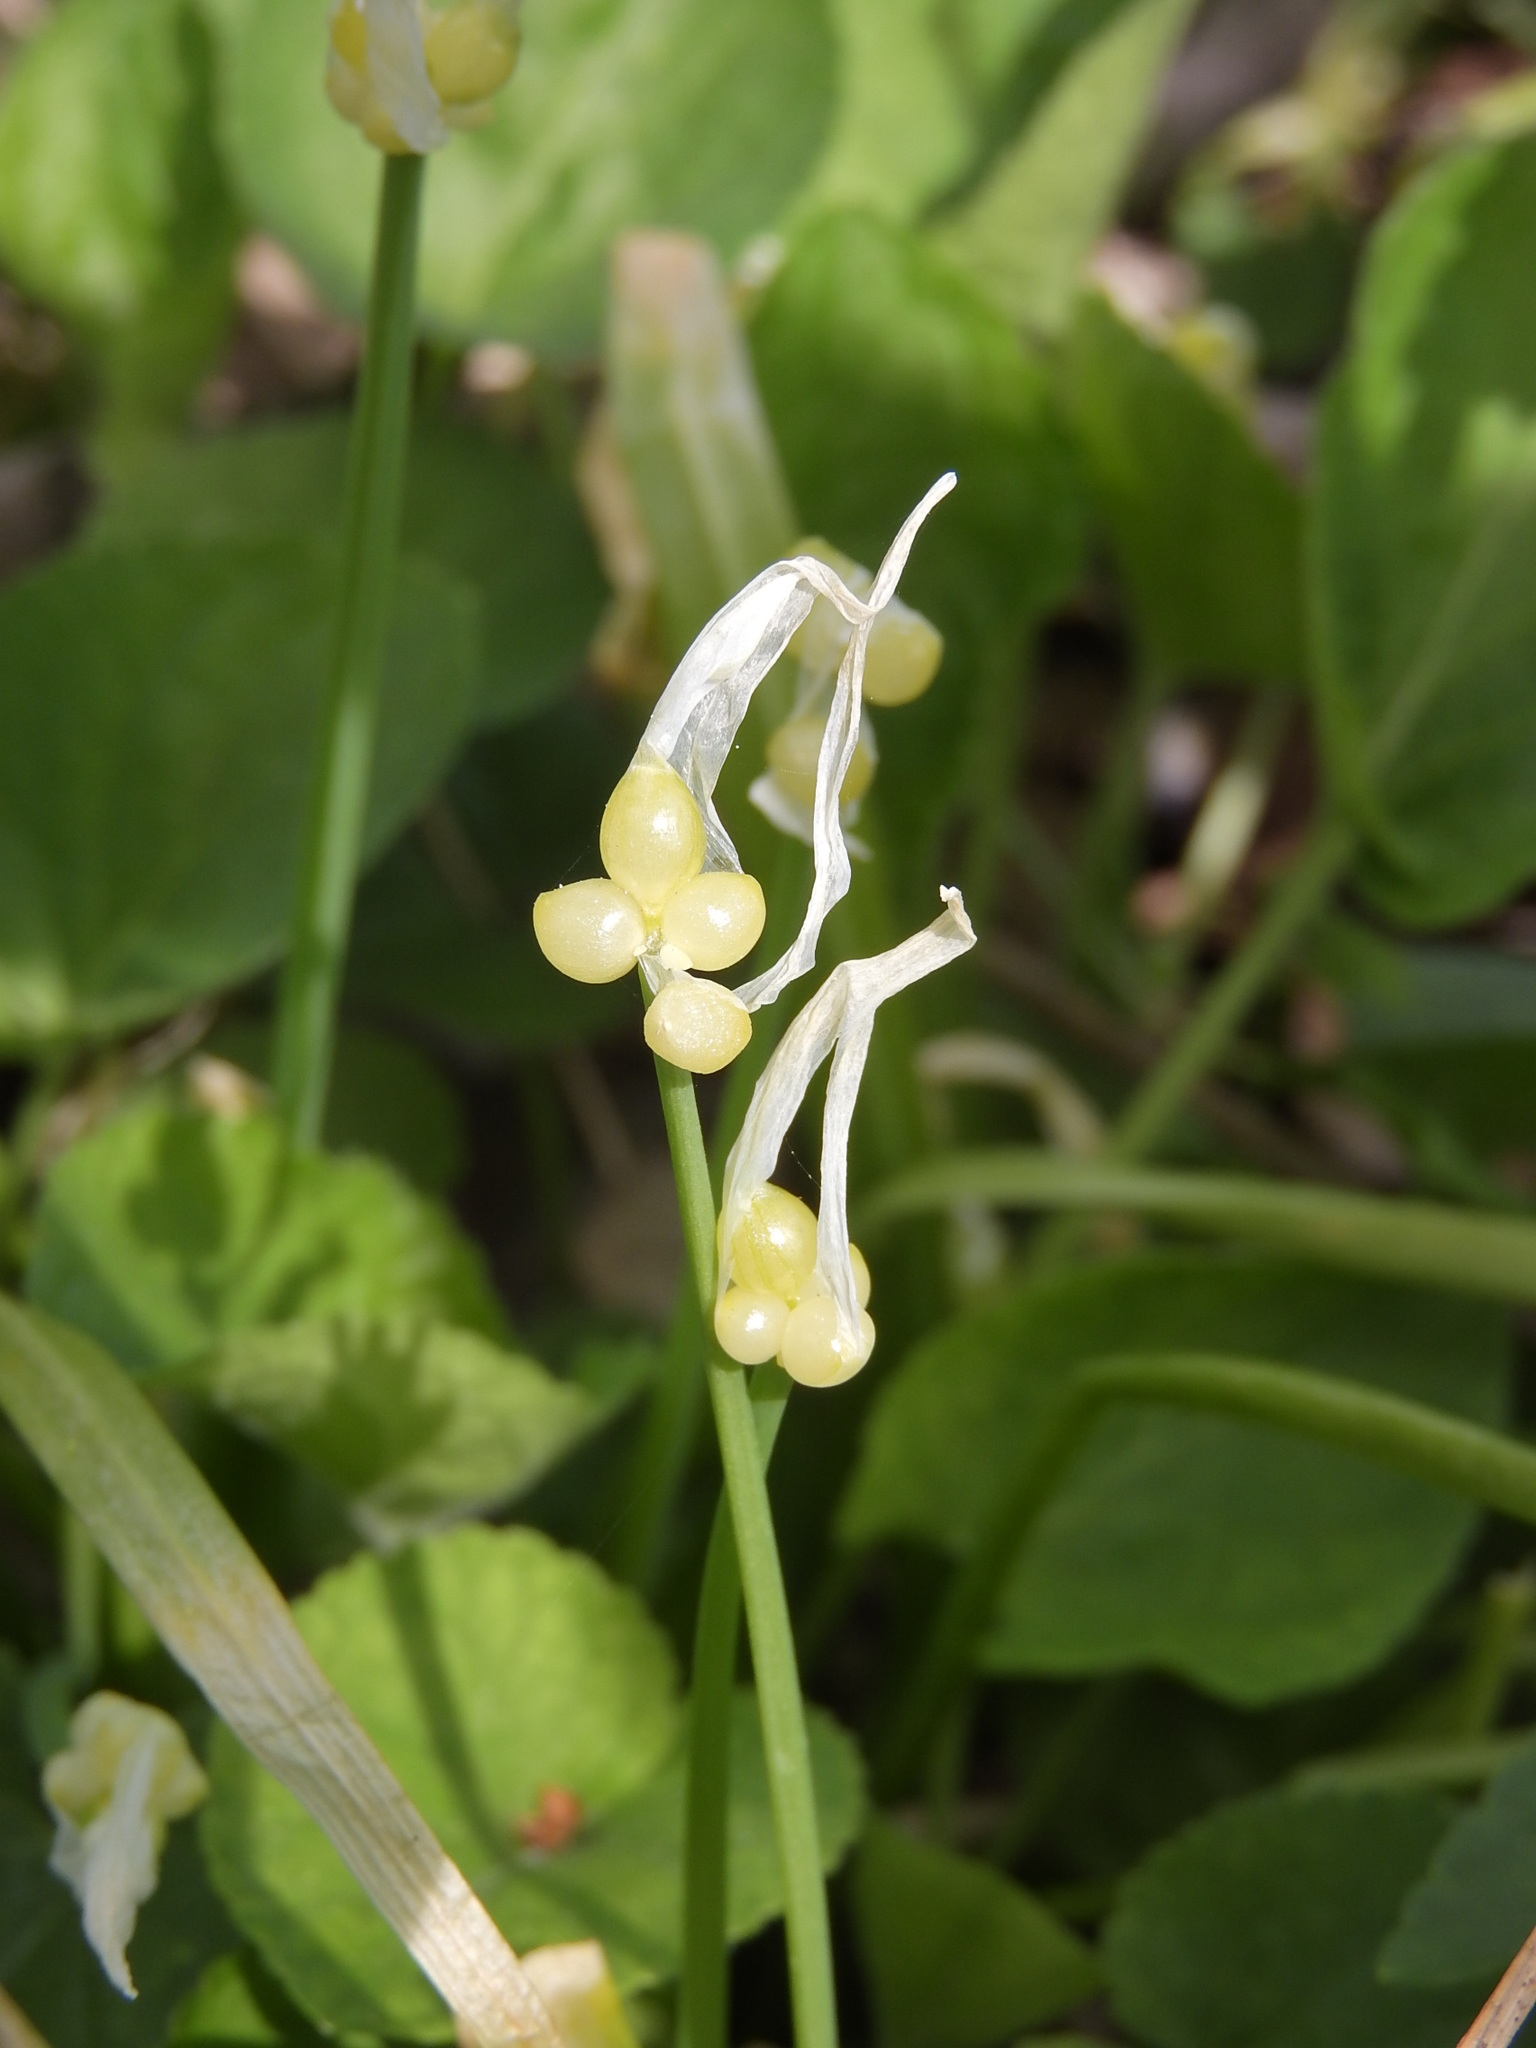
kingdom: Plantae
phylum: Tracheophyta
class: Liliopsida
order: Asparagales
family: Amaryllidaceae
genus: Allium
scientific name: Allium paradoxum
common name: Few-flowered garlic
